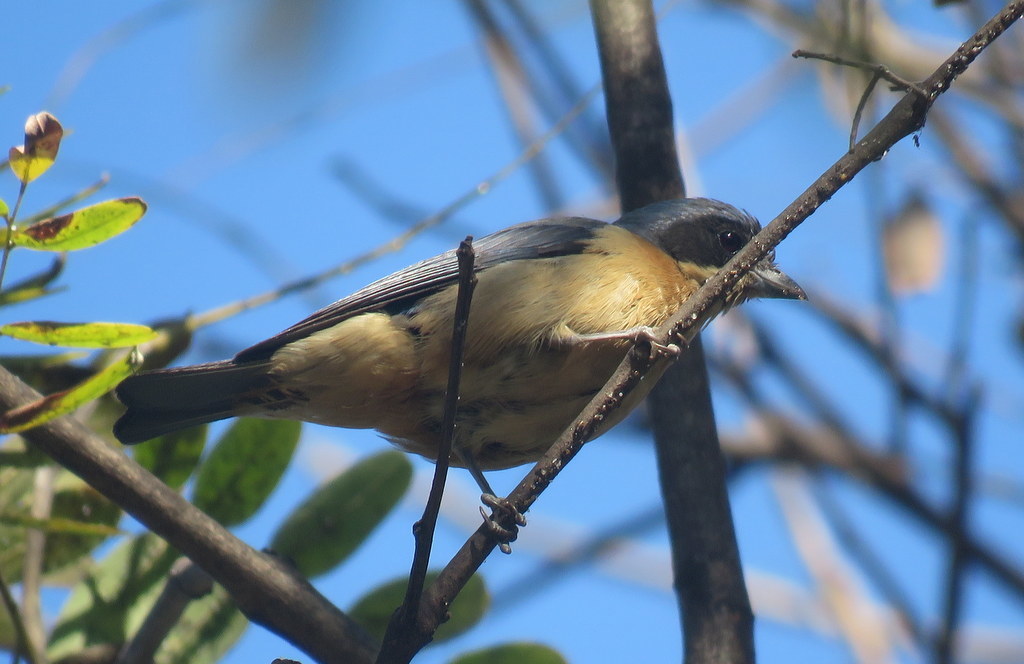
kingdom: Animalia
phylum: Chordata
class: Aves
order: Passeriformes
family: Thraupidae
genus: Pipraeidea
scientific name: Pipraeidea melanonota
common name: Fawn-breasted tanager
